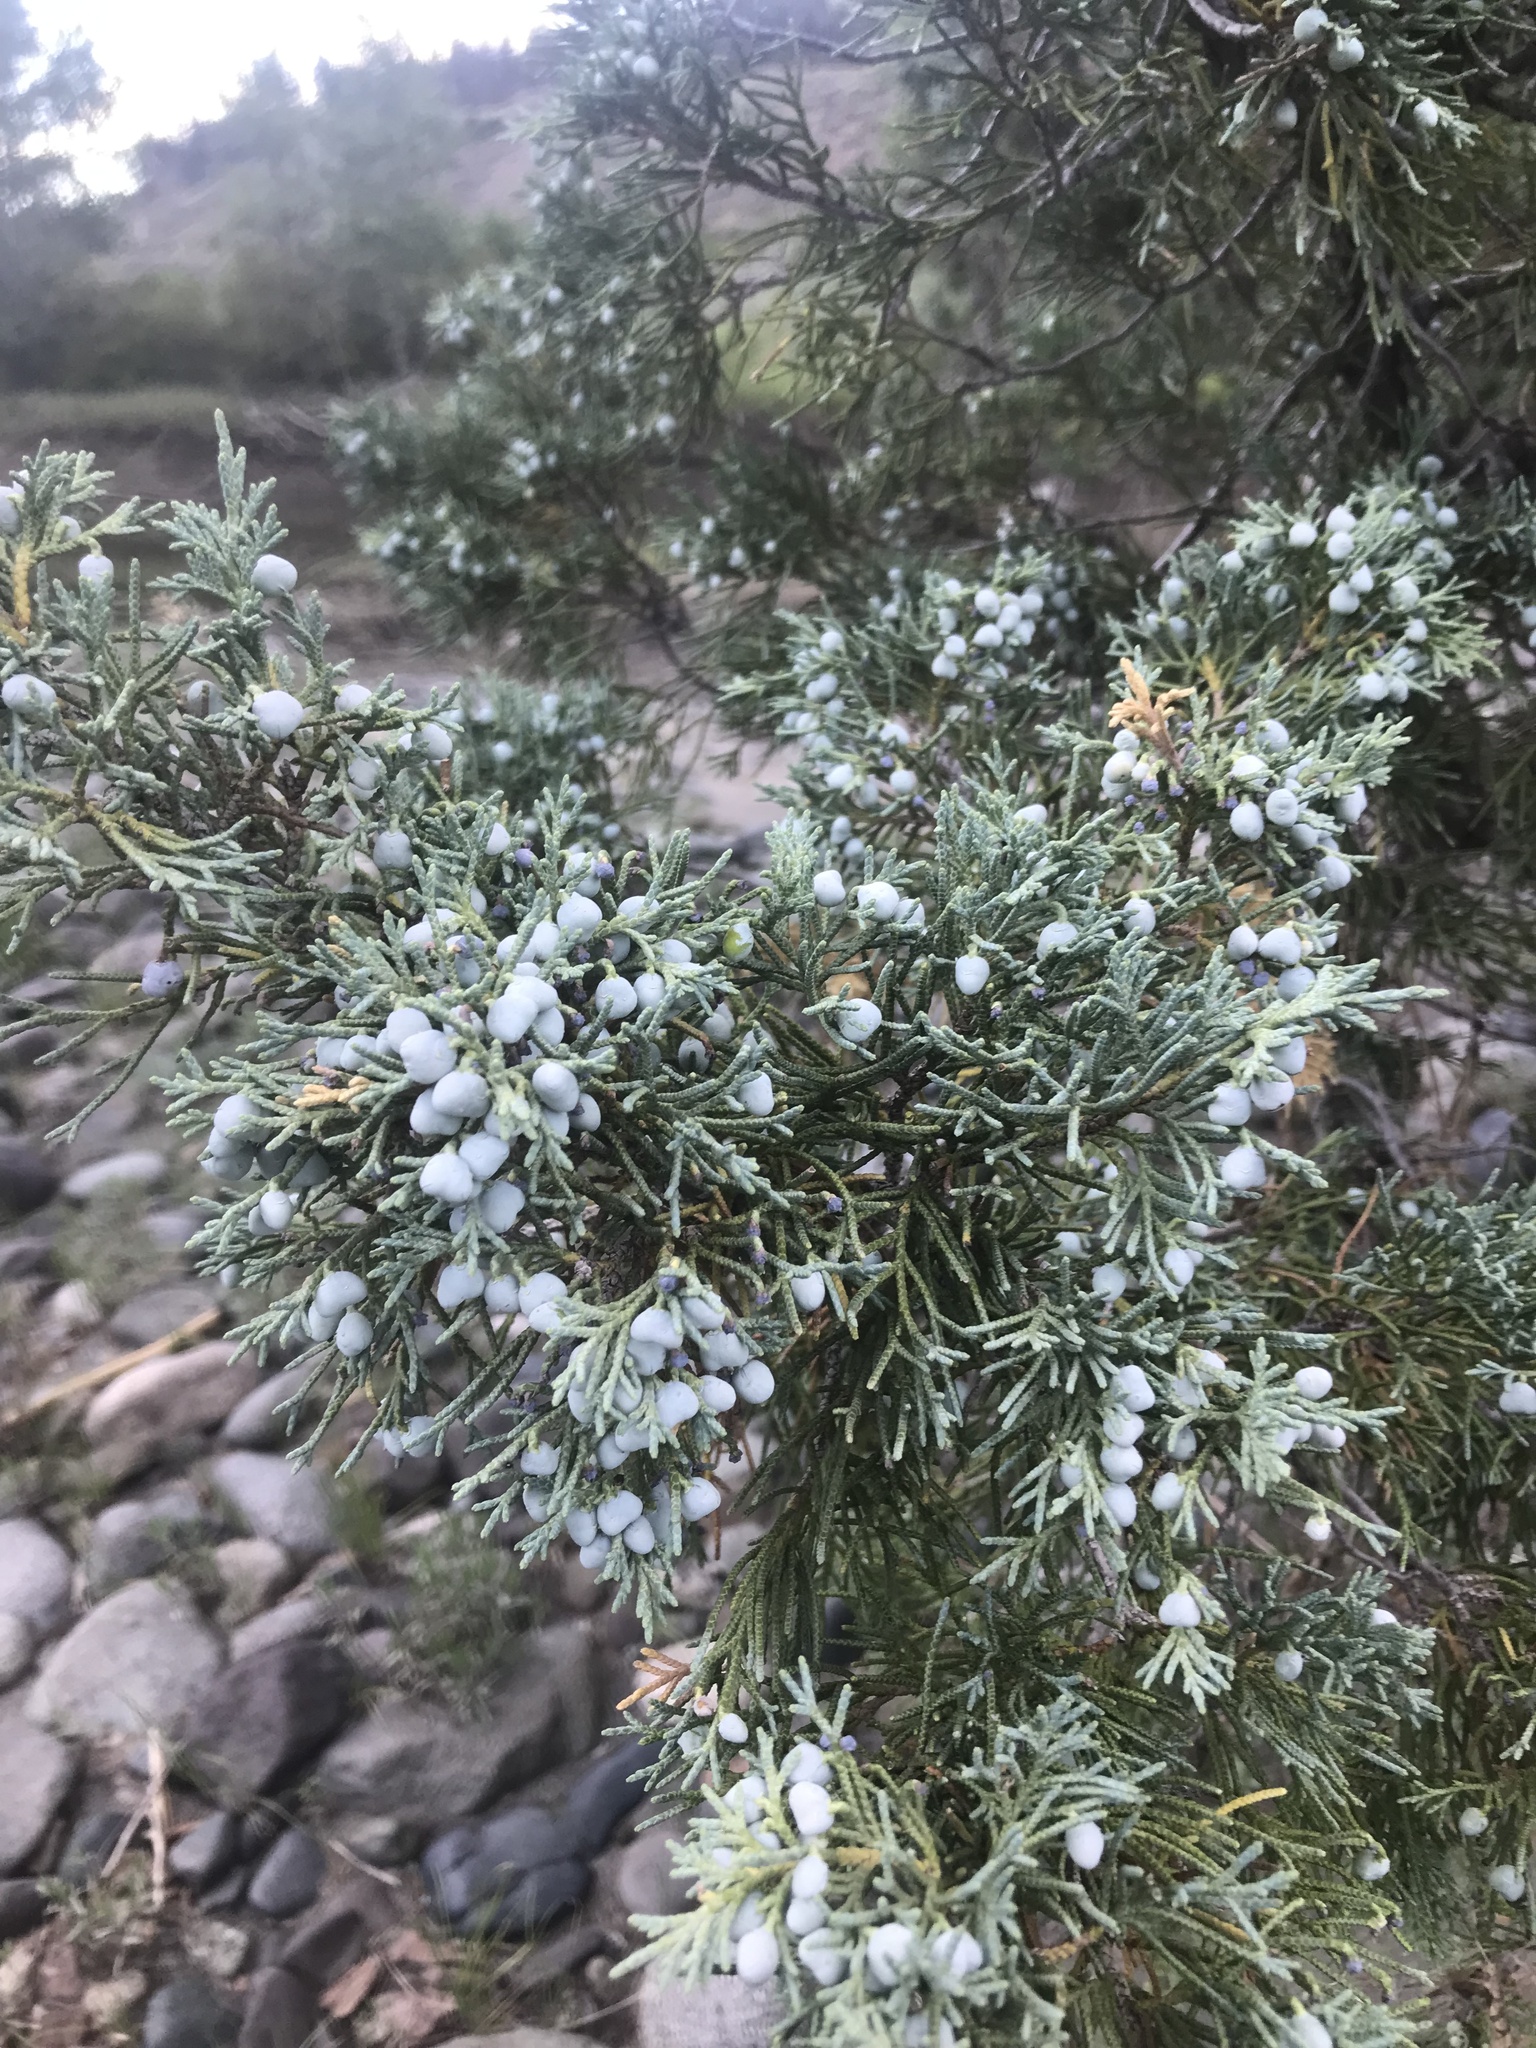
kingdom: Plantae
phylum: Tracheophyta
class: Pinopsida
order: Pinales
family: Cupressaceae
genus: Juniperus
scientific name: Juniperus scopulorum
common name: Rocky mountain juniper
